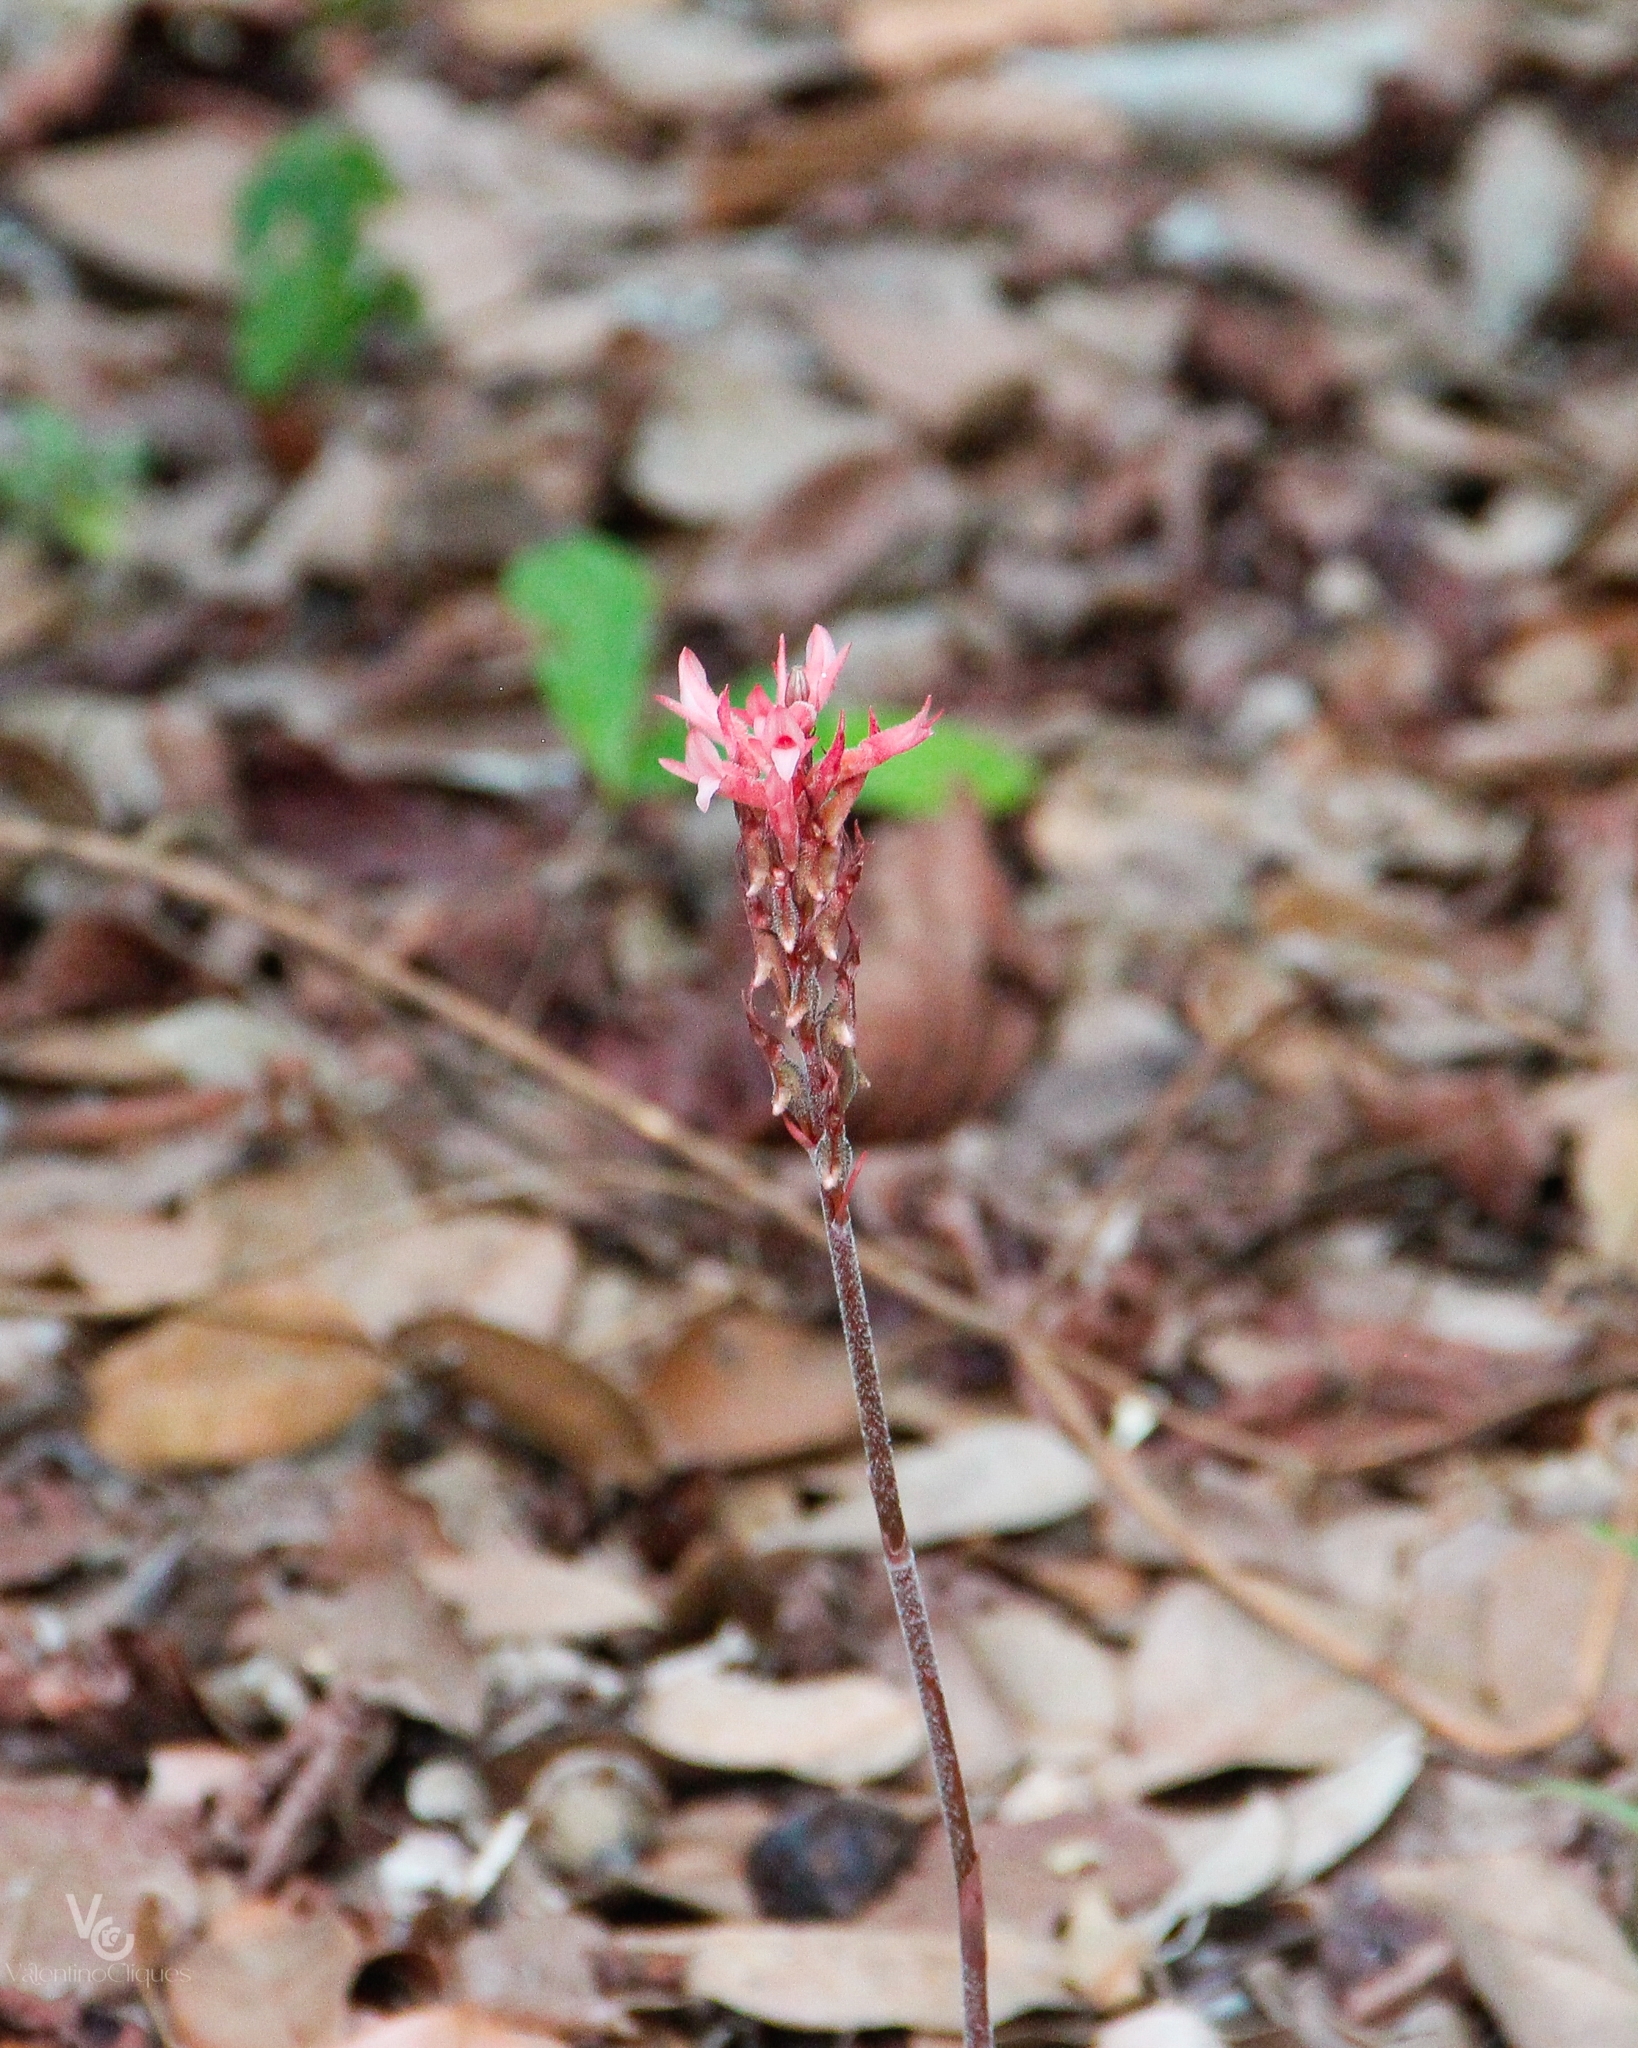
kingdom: Plantae
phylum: Tracheophyta
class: Liliopsida
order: Asparagales
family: Orchidaceae
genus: Sacoila
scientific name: Sacoila lanceolata
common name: Leafless beaked ladiestresses
